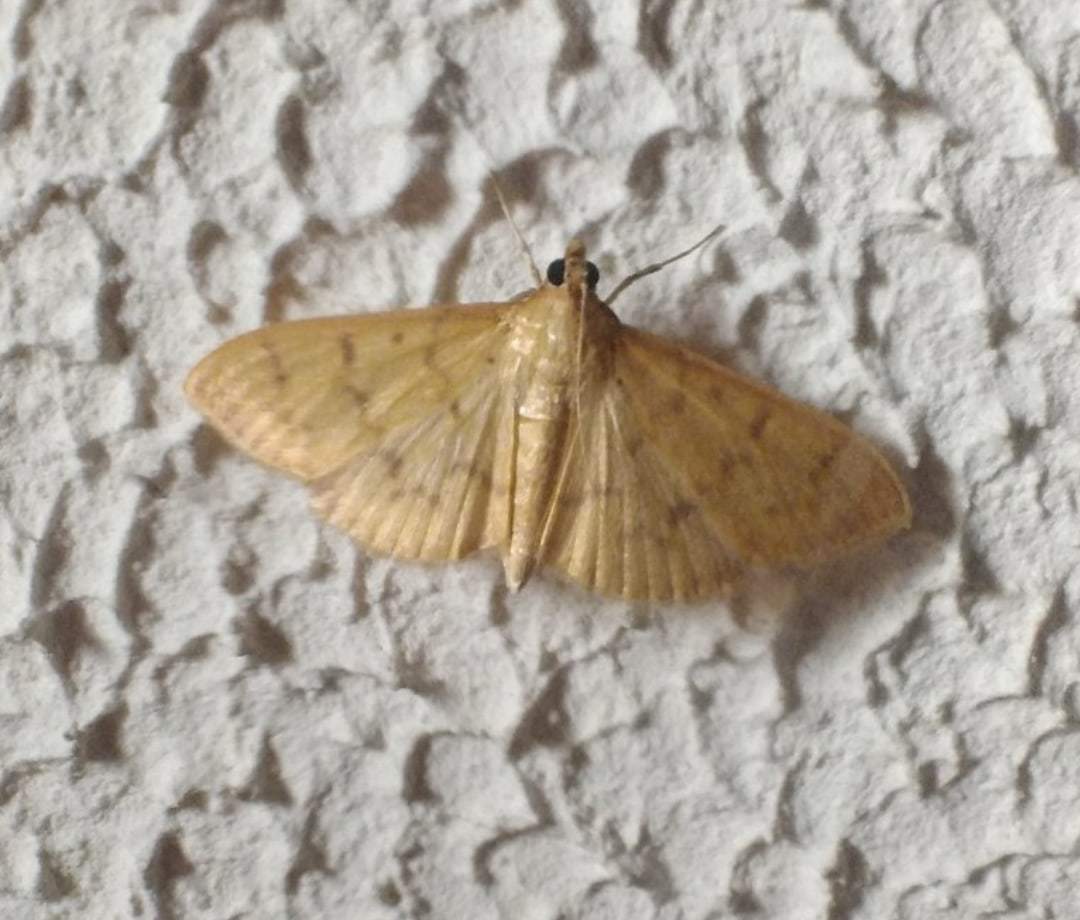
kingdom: Animalia
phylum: Arthropoda
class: Insecta
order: Lepidoptera
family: Crambidae
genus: Pleuroptya
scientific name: Pleuroptya balteata
